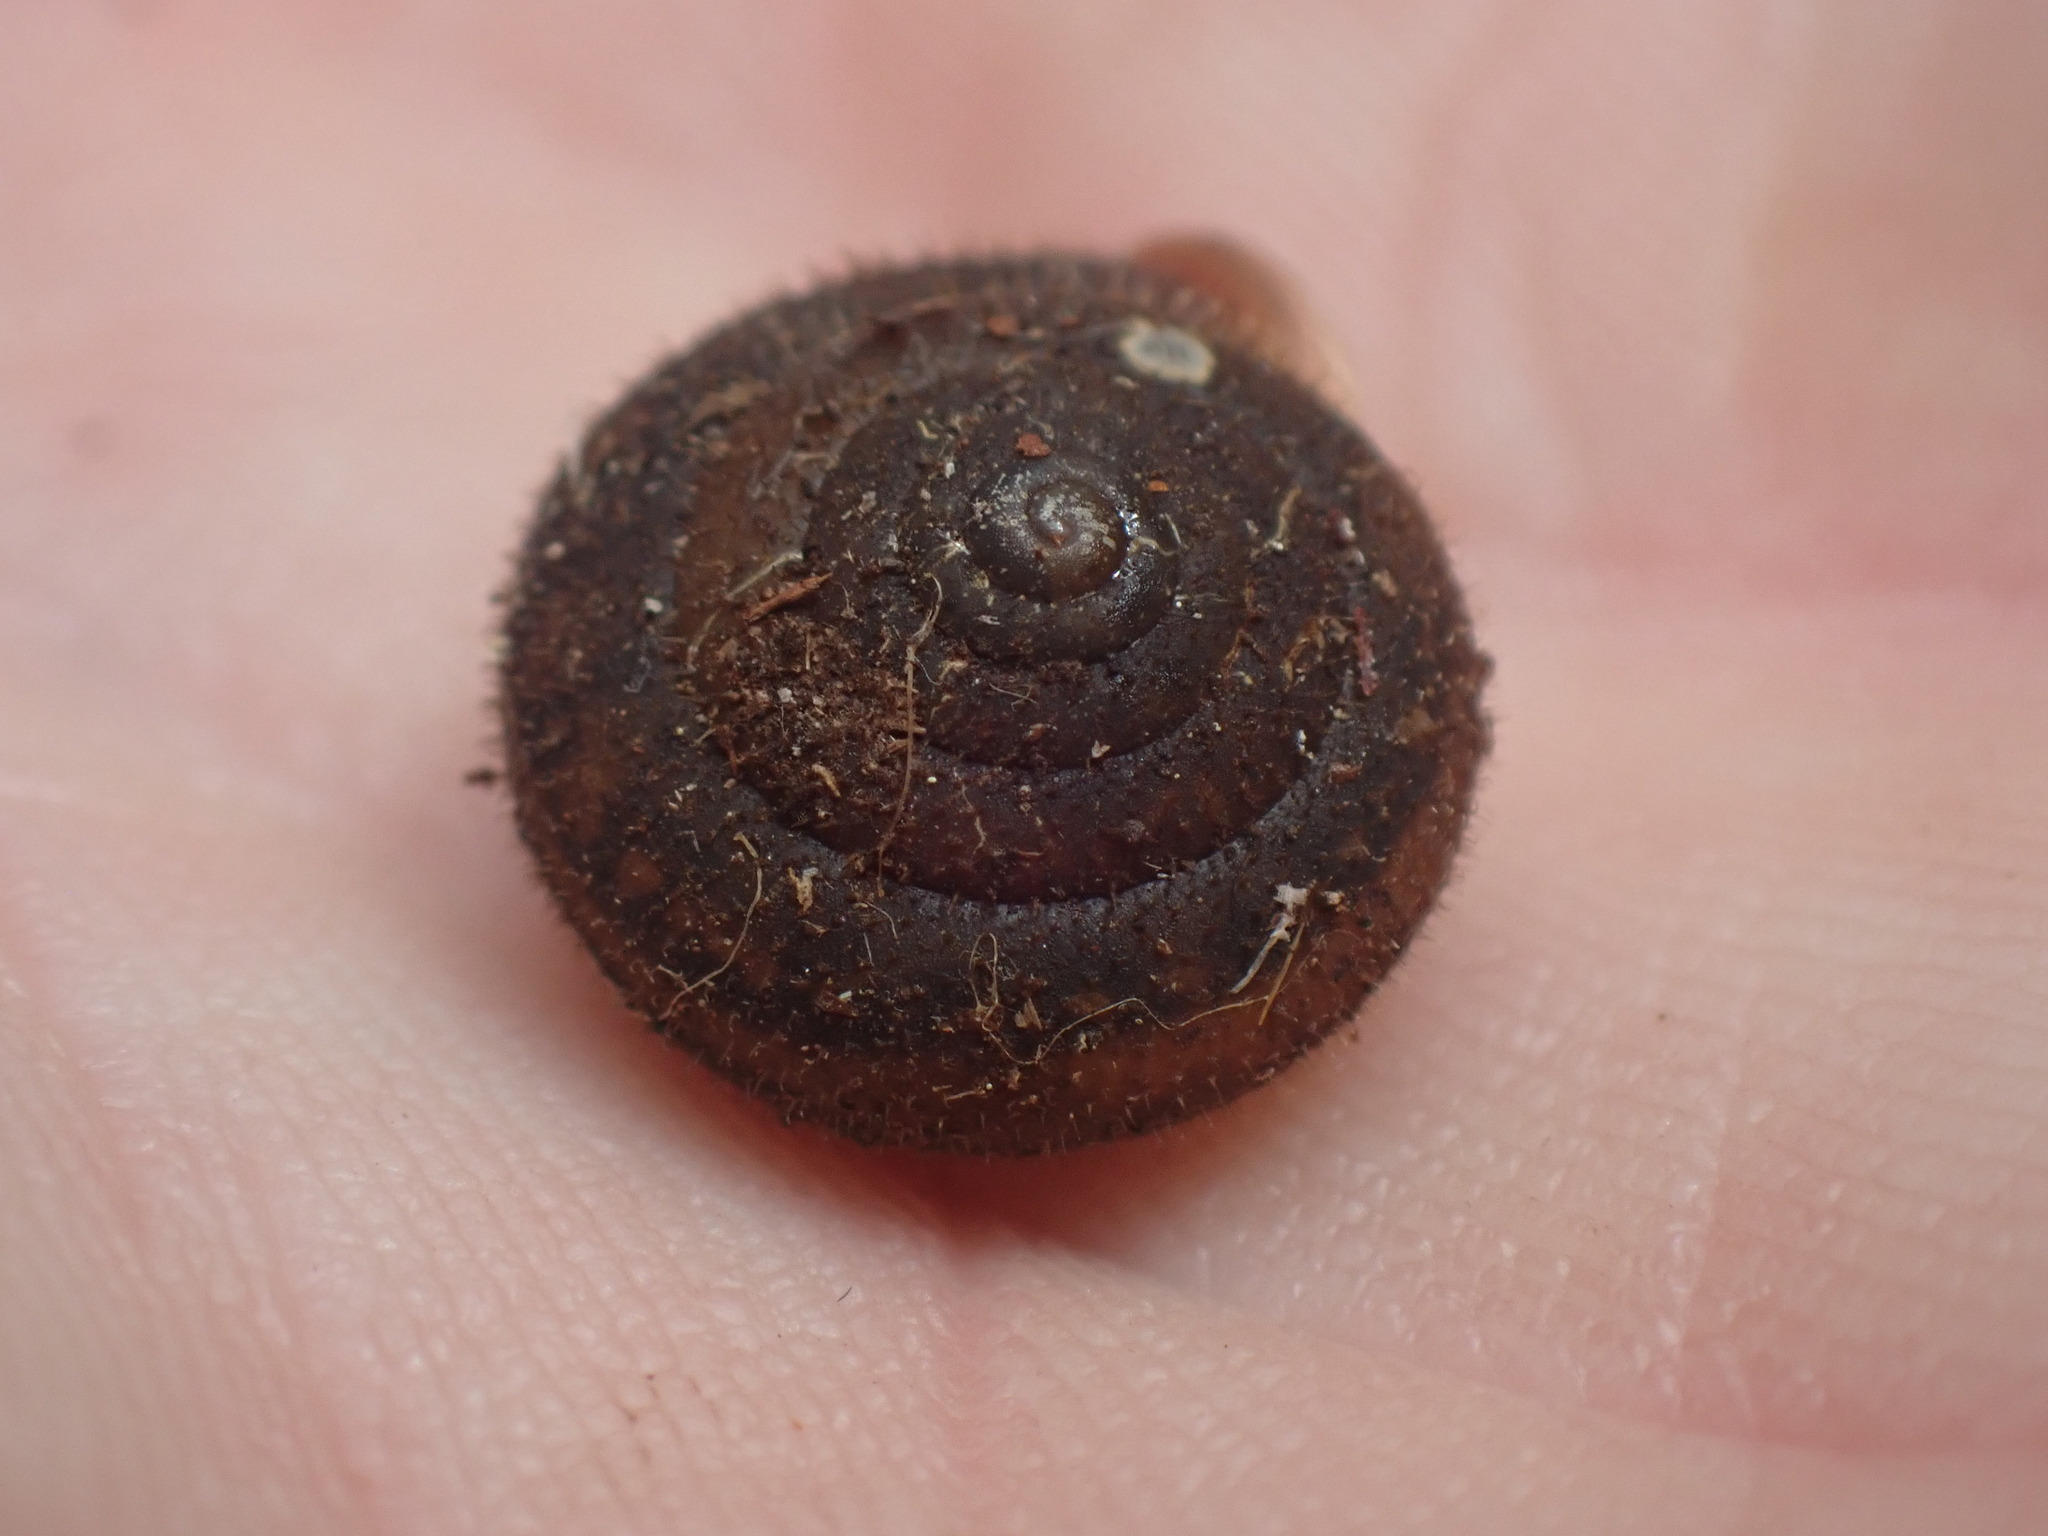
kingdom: Animalia
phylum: Mollusca
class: Gastropoda
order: Stylommatophora
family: Polygyridae
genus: Vespericola
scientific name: Vespericola columbianus
